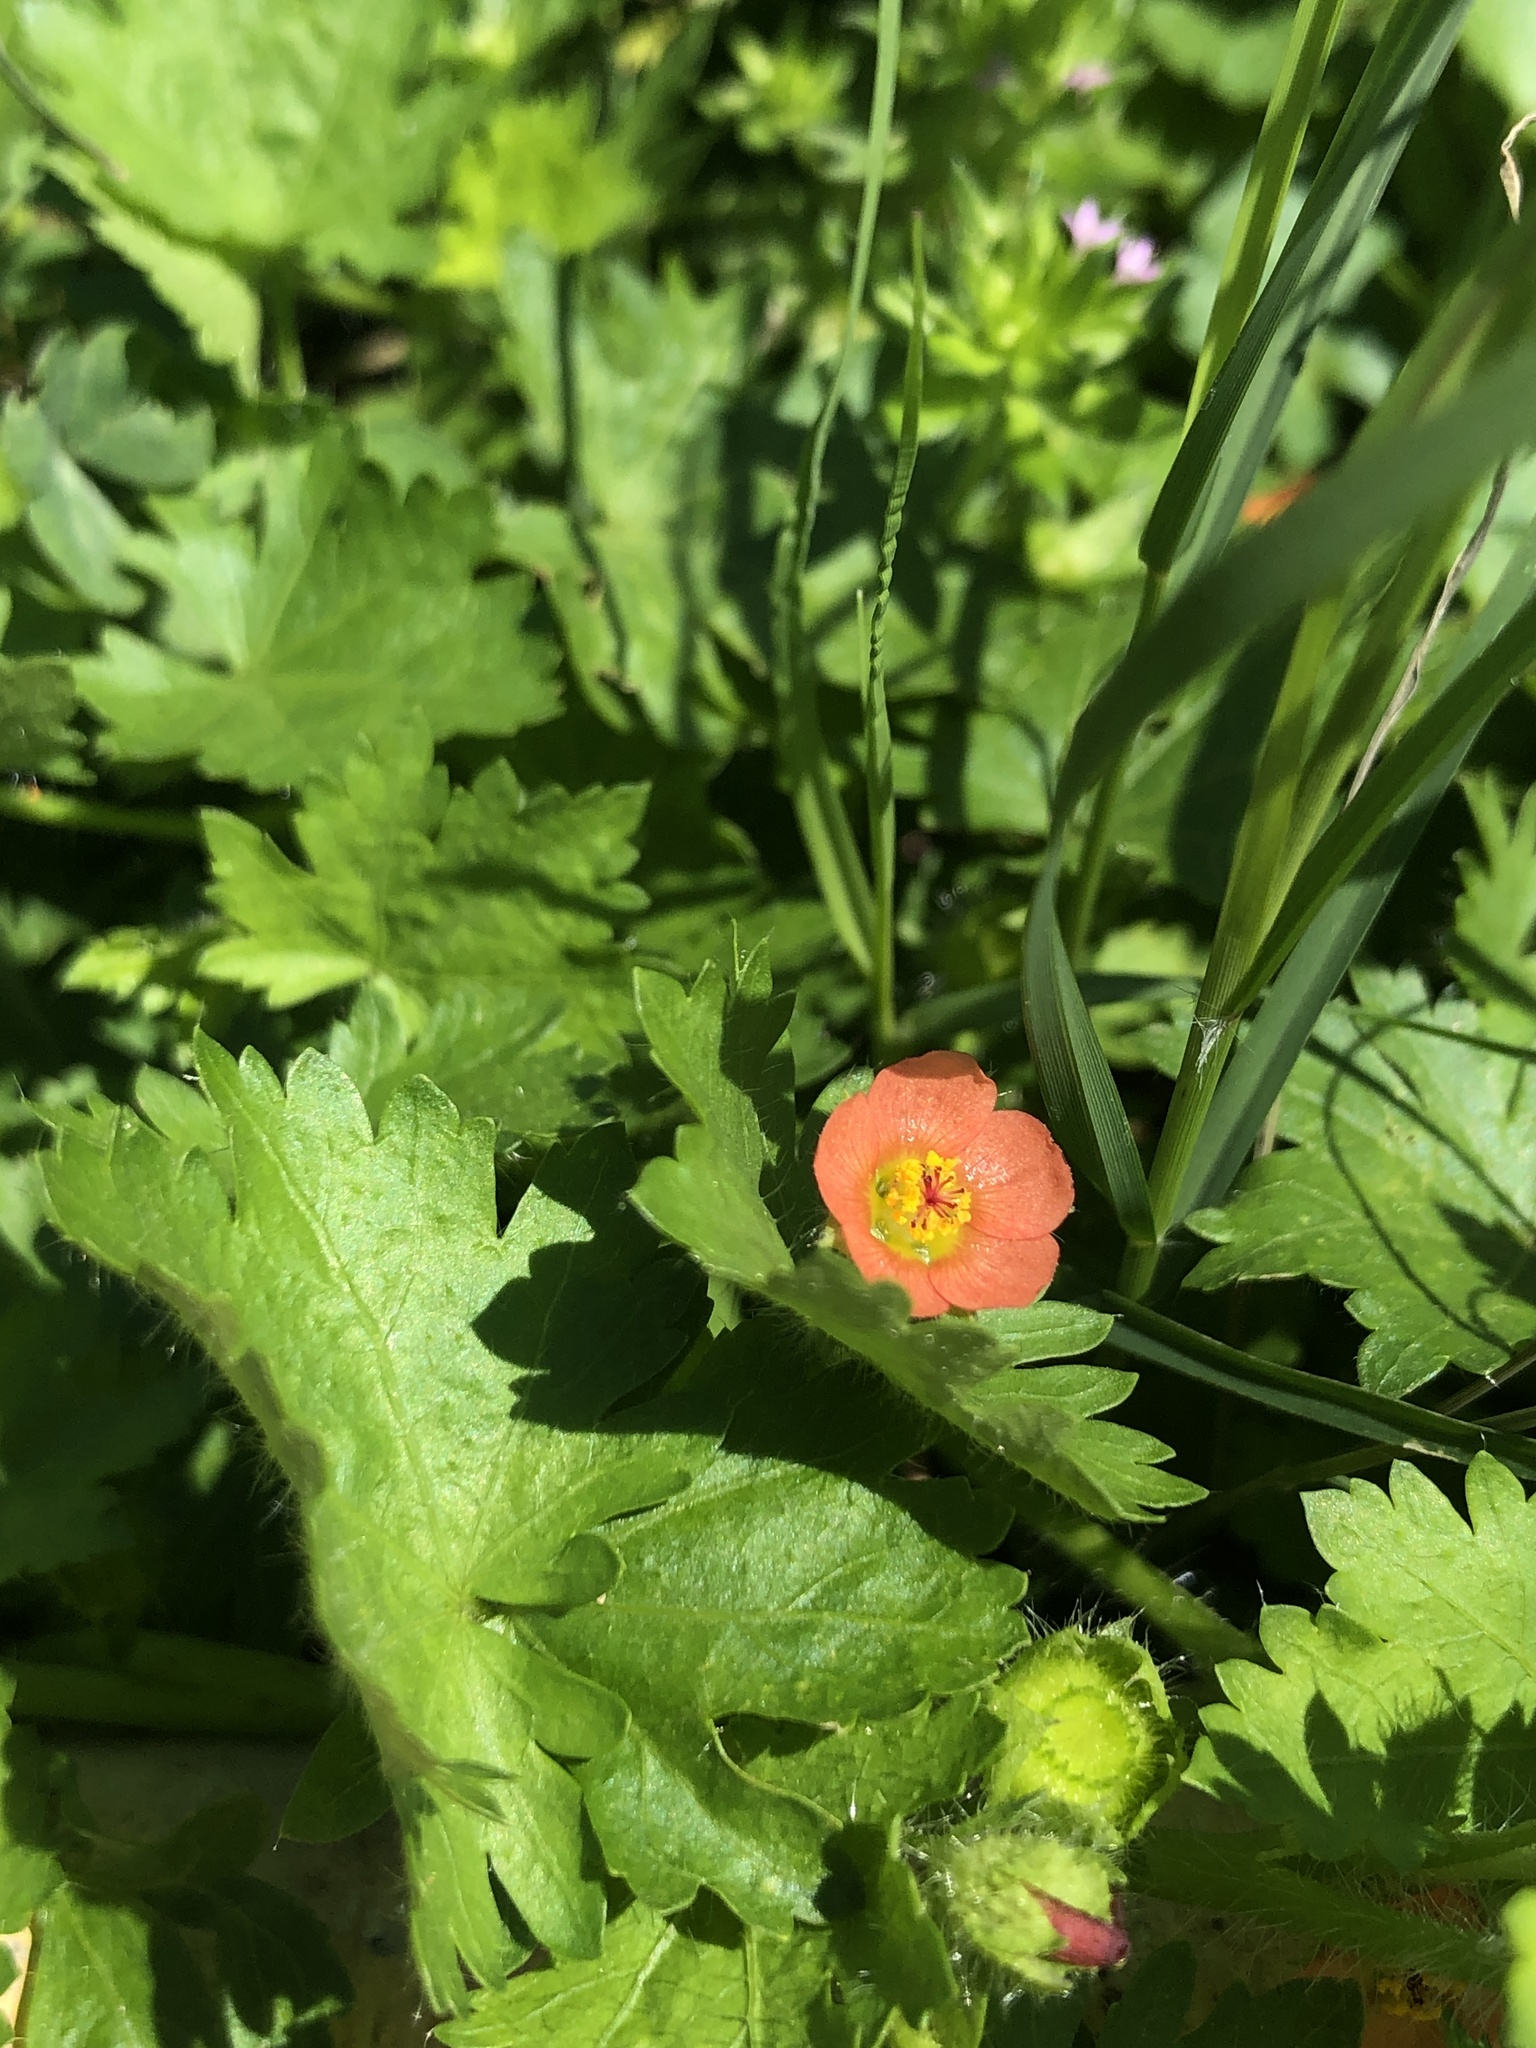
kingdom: Plantae
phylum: Tracheophyta
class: Magnoliopsida
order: Malvales
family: Malvaceae
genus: Modiola
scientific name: Modiola caroliniana
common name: Carolina bristlemallow
